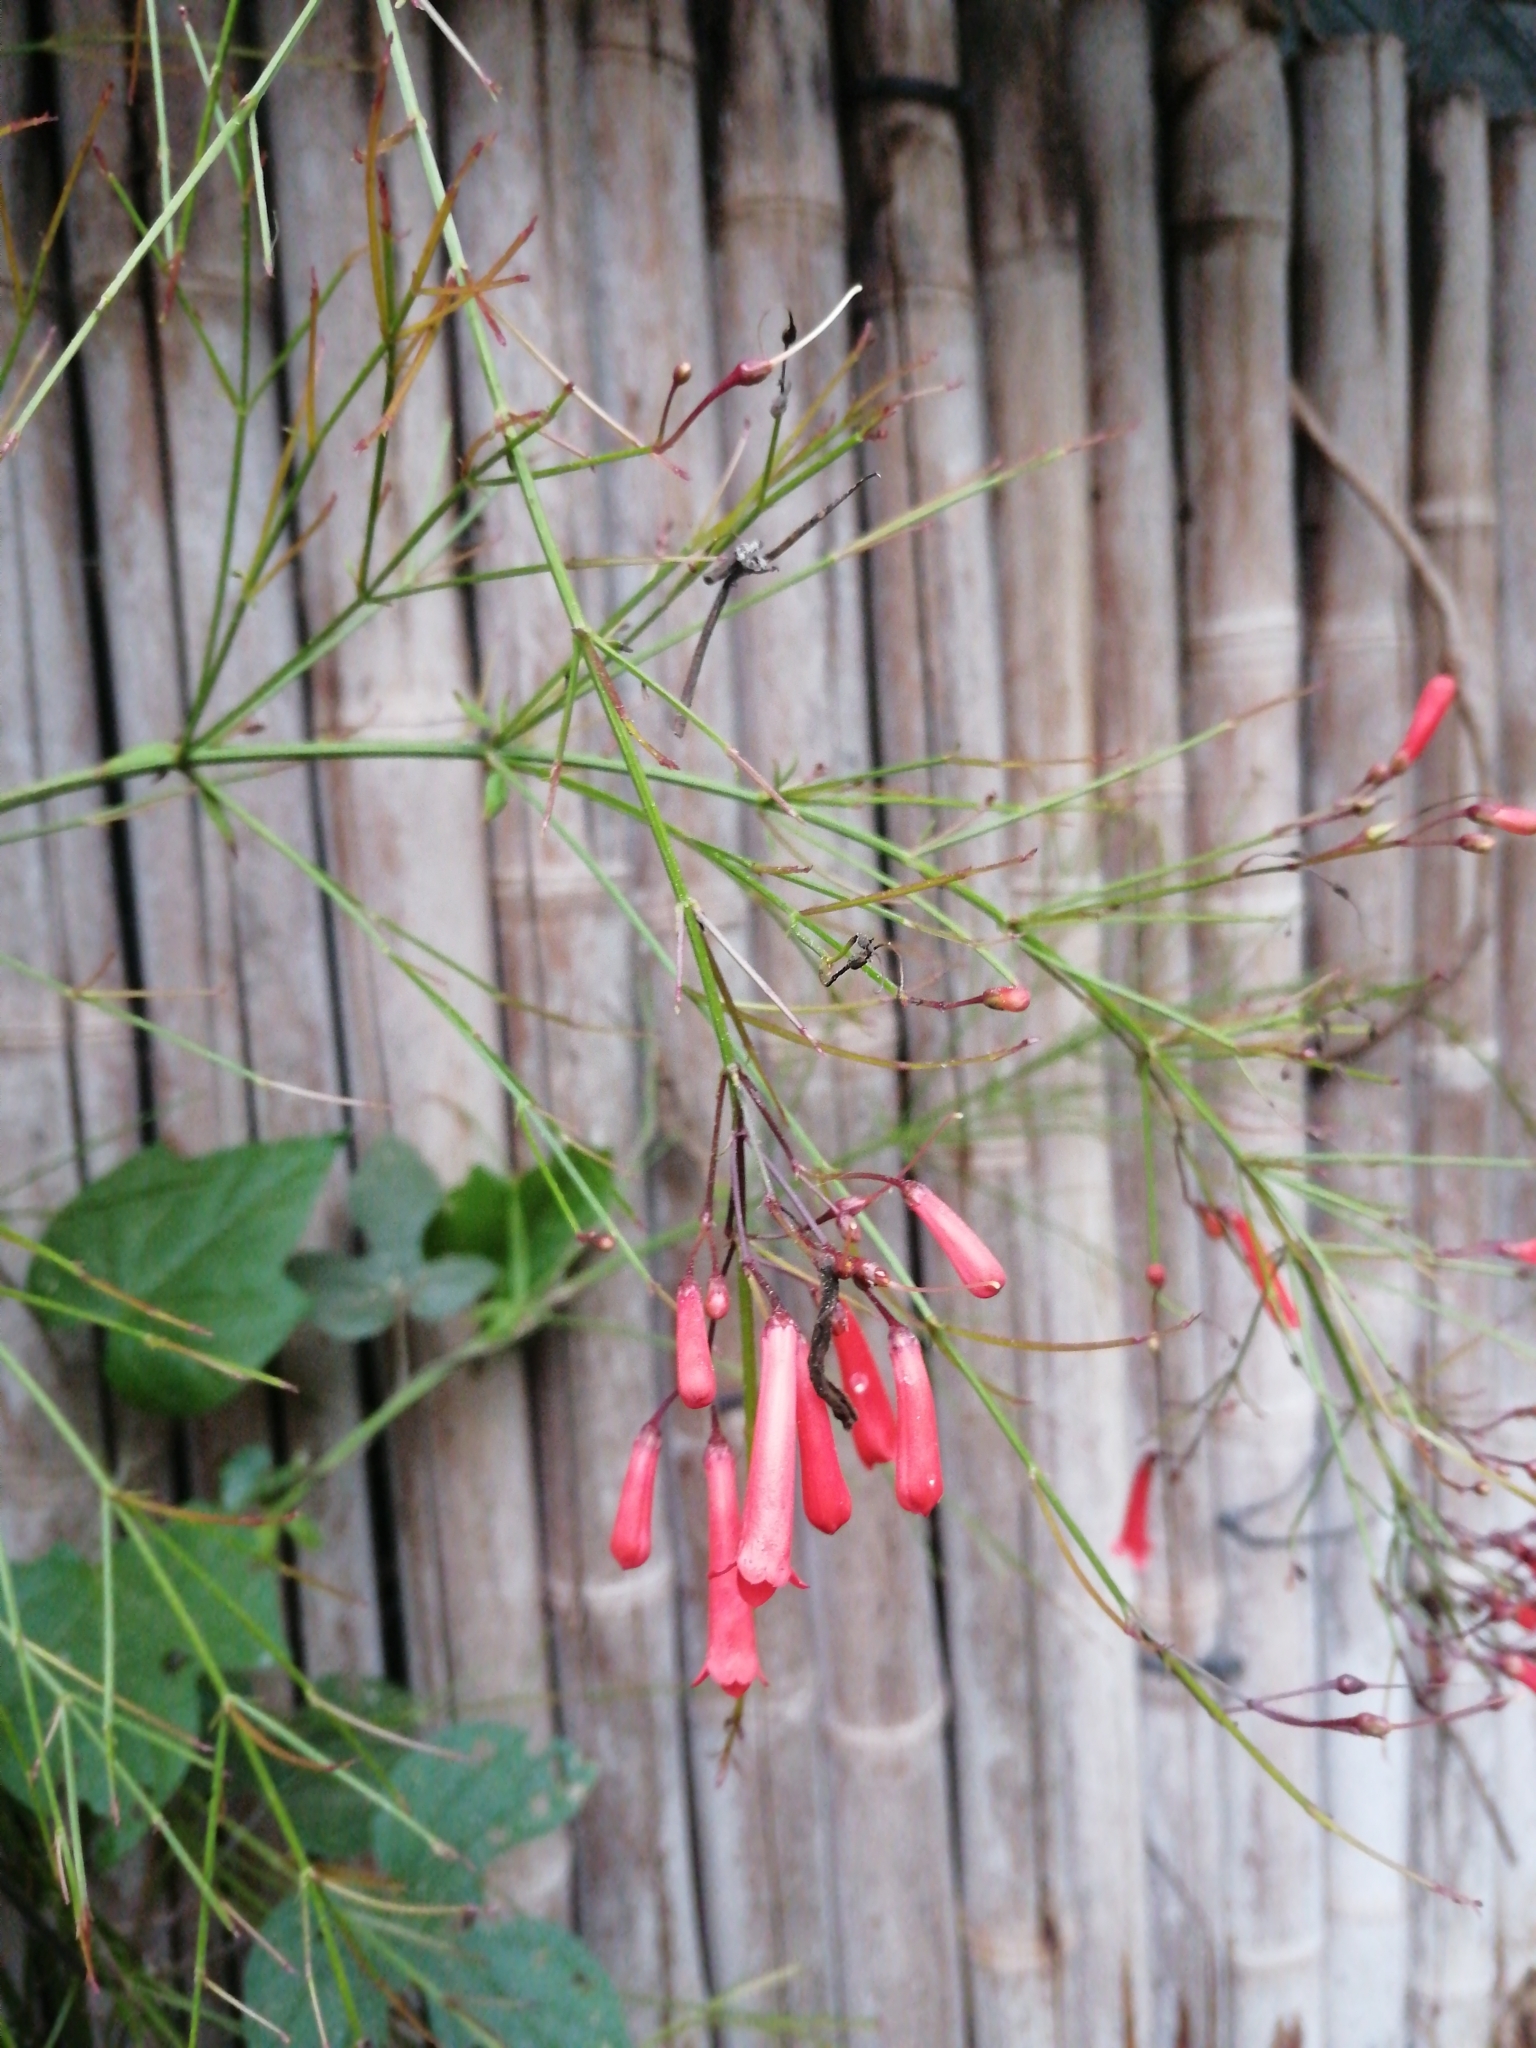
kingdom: Plantae
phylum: Tracheophyta
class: Magnoliopsida
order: Lamiales
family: Plantaginaceae
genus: Russelia
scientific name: Russelia equisetiformis
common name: Fountainbush
